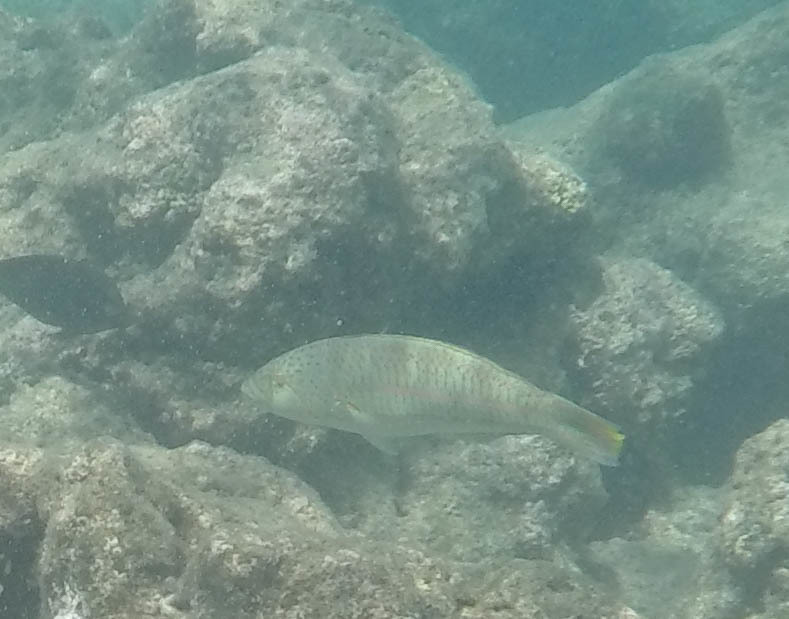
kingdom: Animalia
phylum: Chordata
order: Perciformes
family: Labridae
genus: Thalassoma
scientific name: Thalassoma trilobatum
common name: Christmas wrasse
